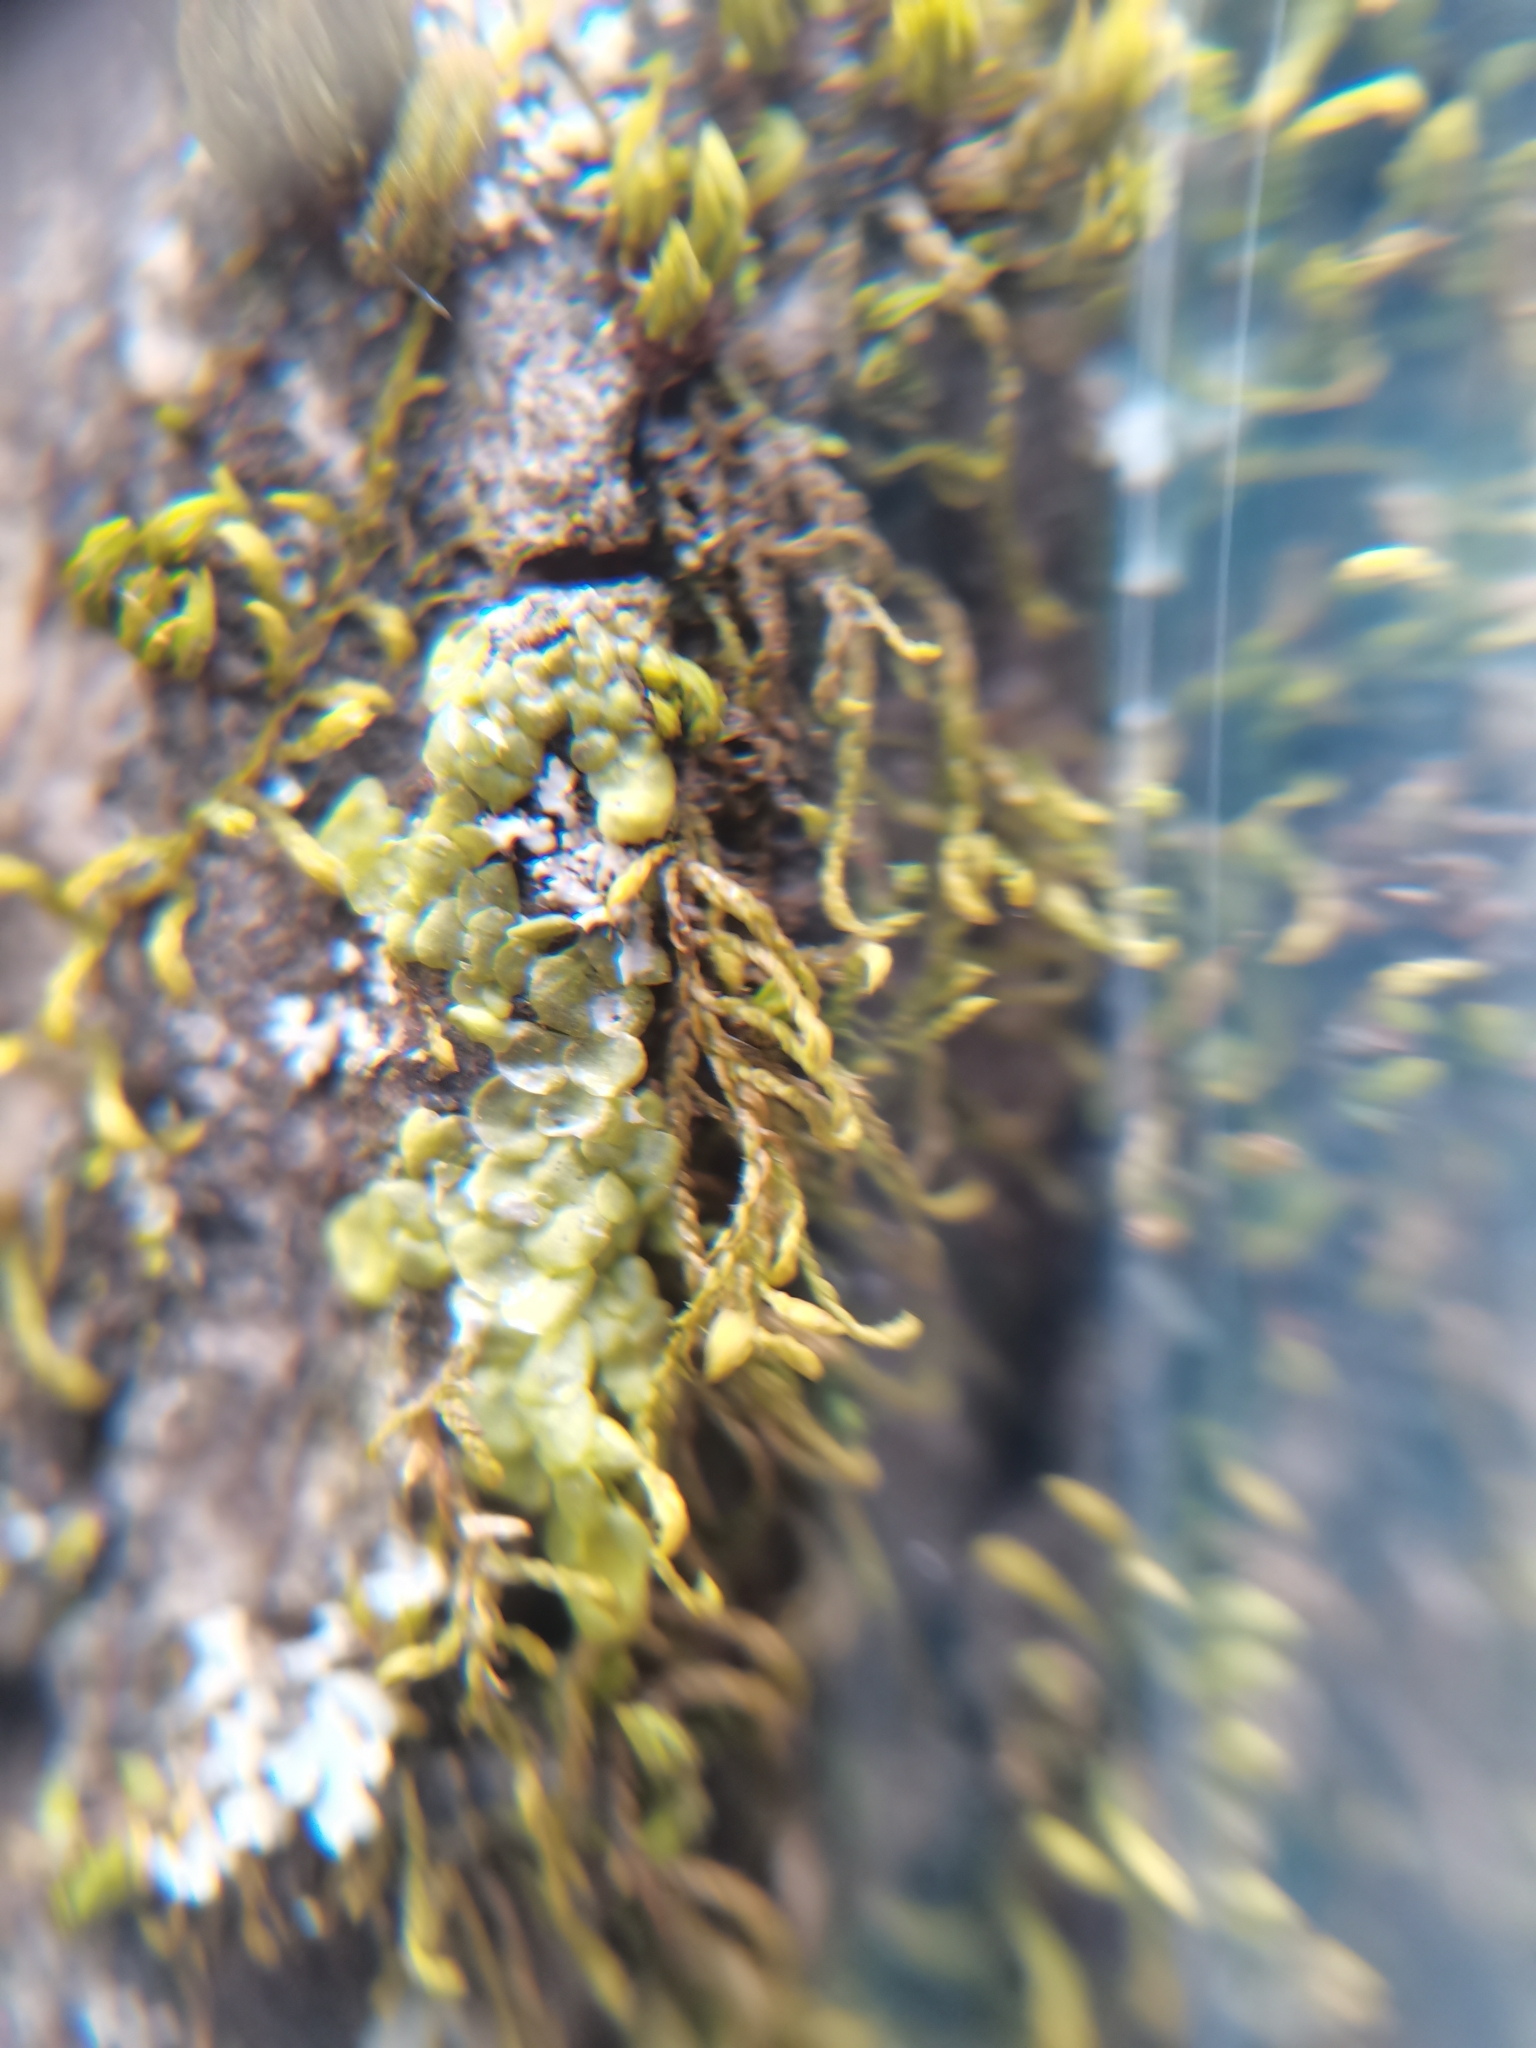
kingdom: Plantae
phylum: Marchantiophyta
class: Jungermanniopsida
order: Porellales
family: Radulaceae
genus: Radula
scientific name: Radula complanata
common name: Flat-leaved scalewort
